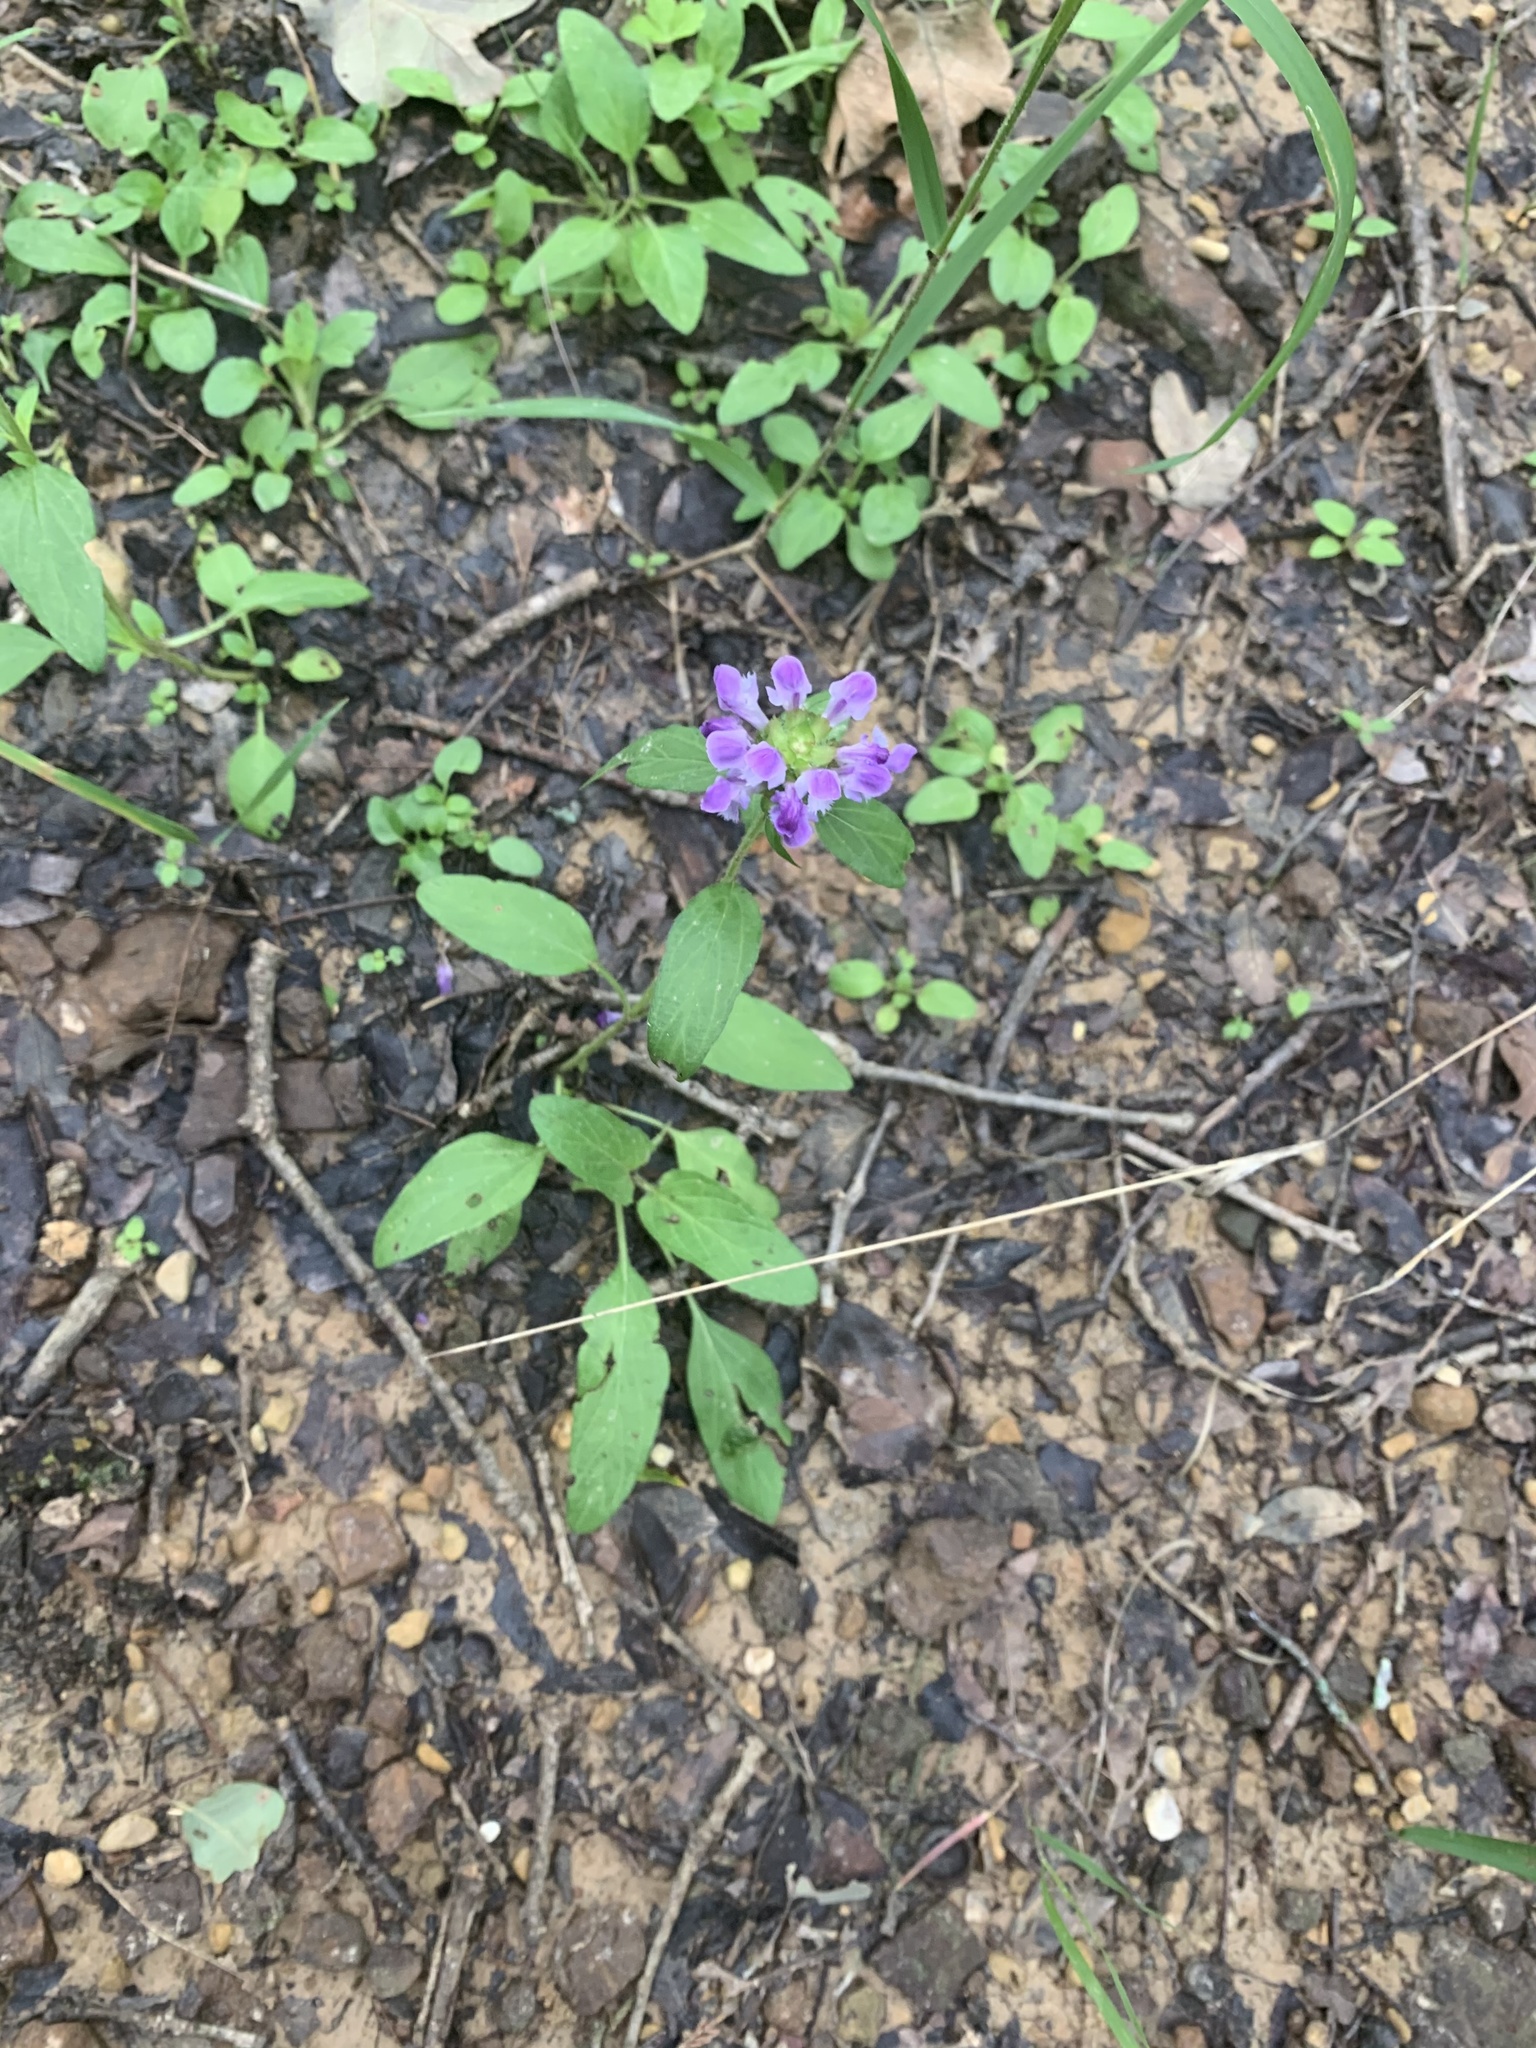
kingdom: Plantae
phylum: Tracheophyta
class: Magnoliopsida
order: Lamiales
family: Lamiaceae
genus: Prunella
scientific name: Prunella vulgaris
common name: Heal-all
